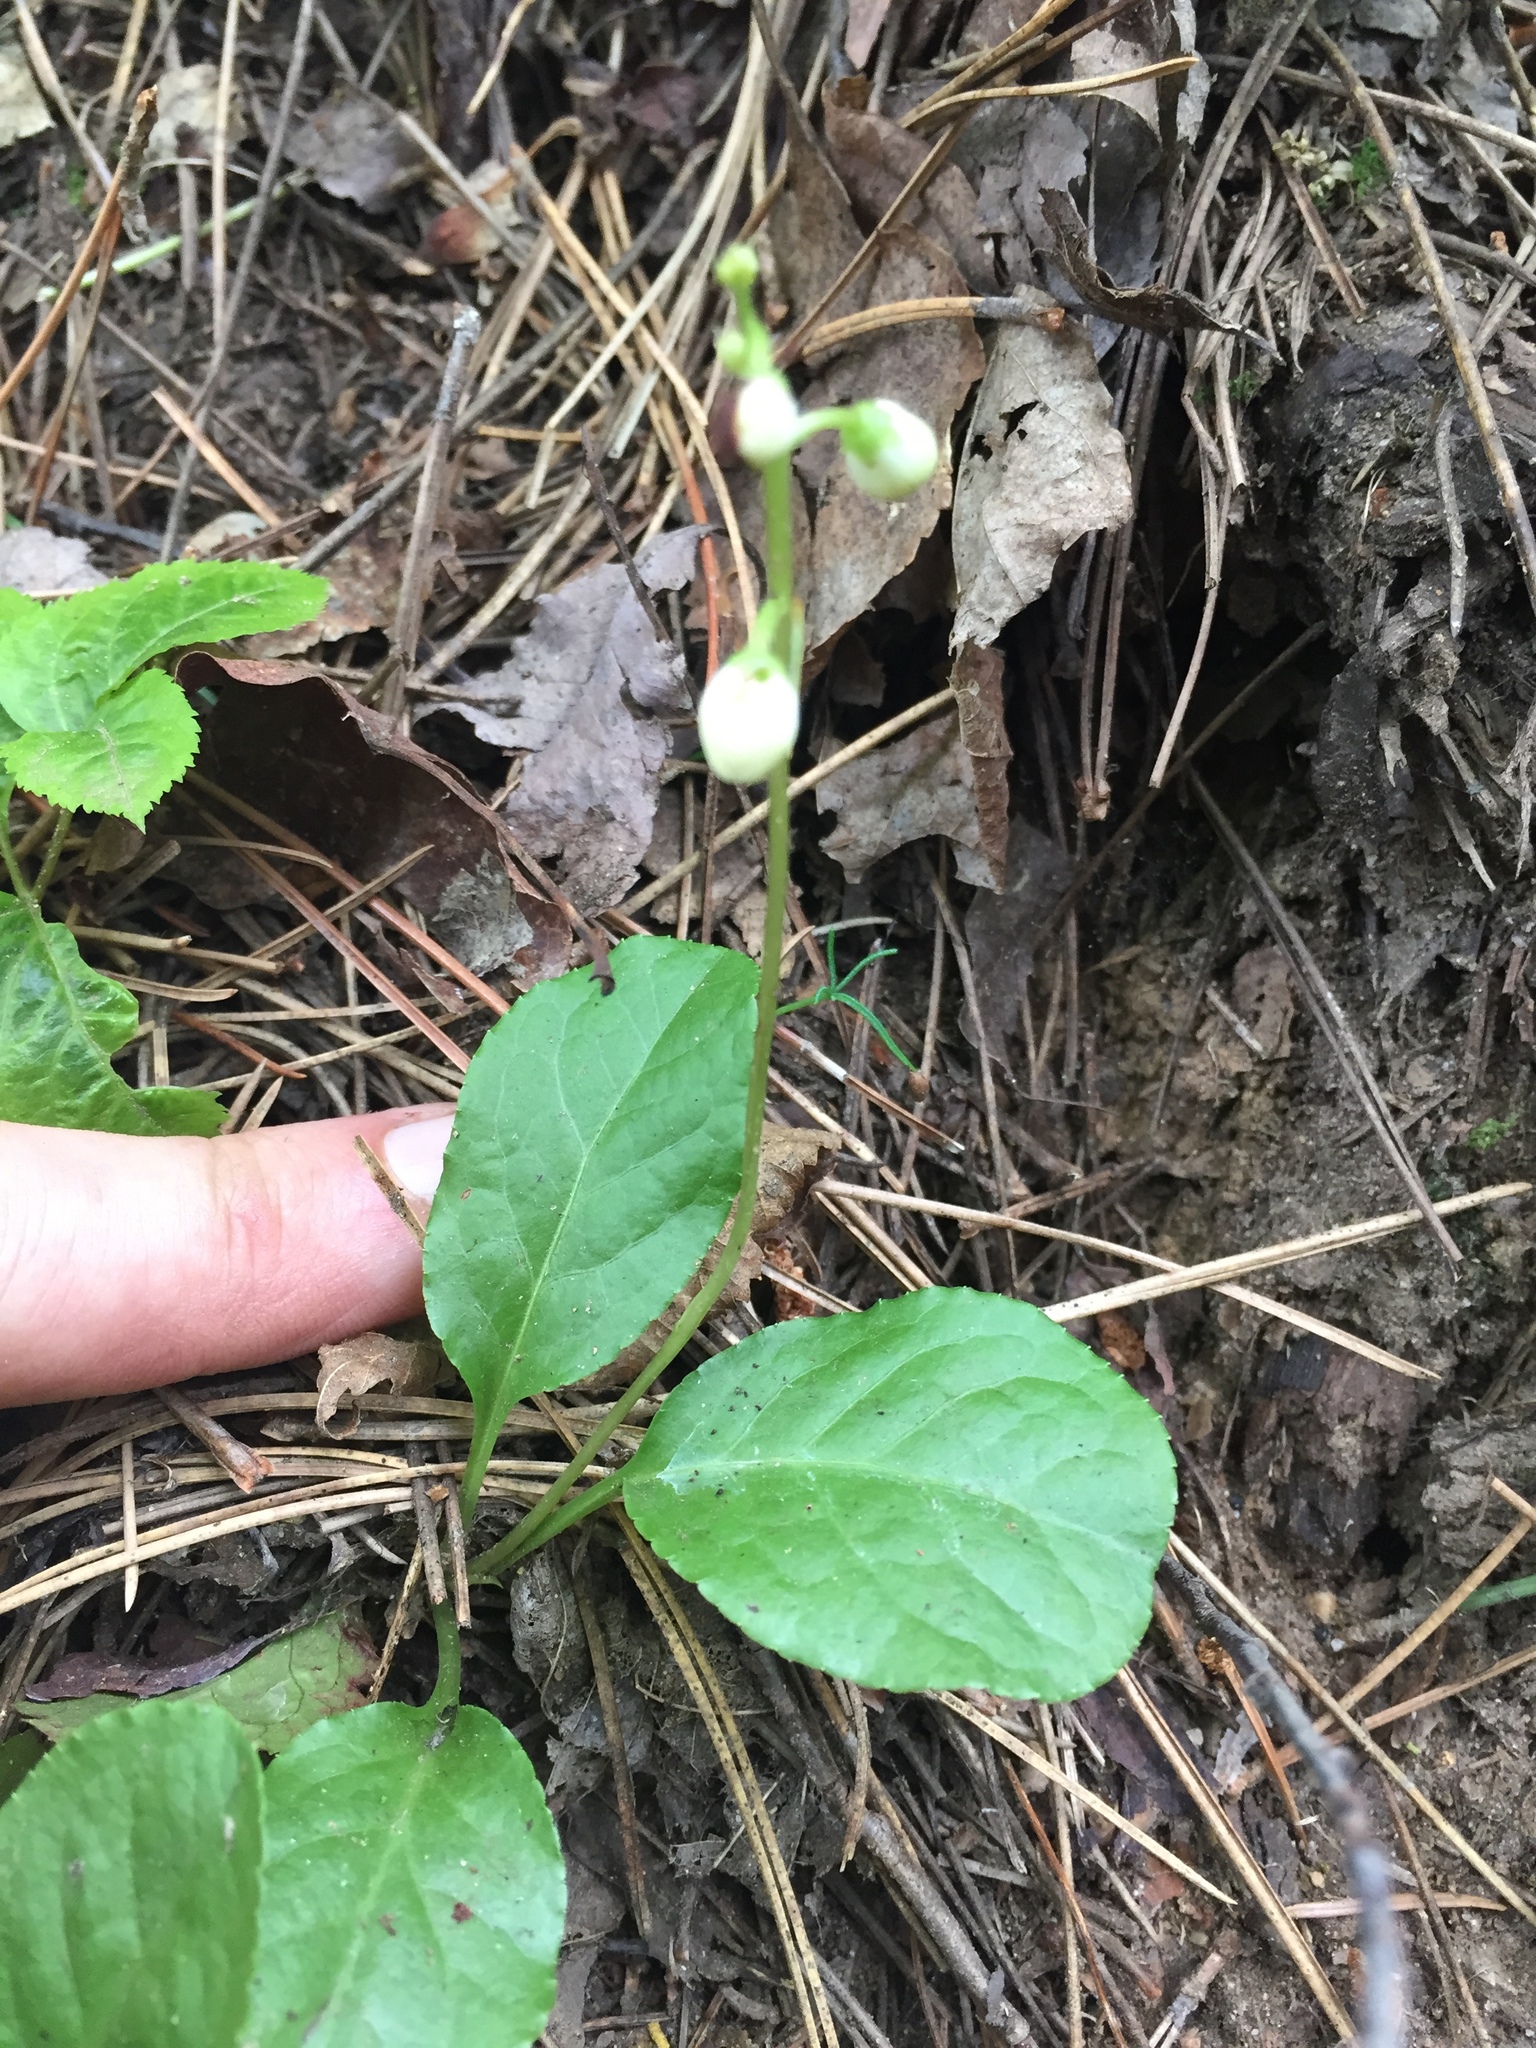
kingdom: Plantae
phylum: Tracheophyta
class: Magnoliopsida
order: Ericales
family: Ericaceae
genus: Pyrola
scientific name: Pyrola elliptica
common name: Shinleaf
